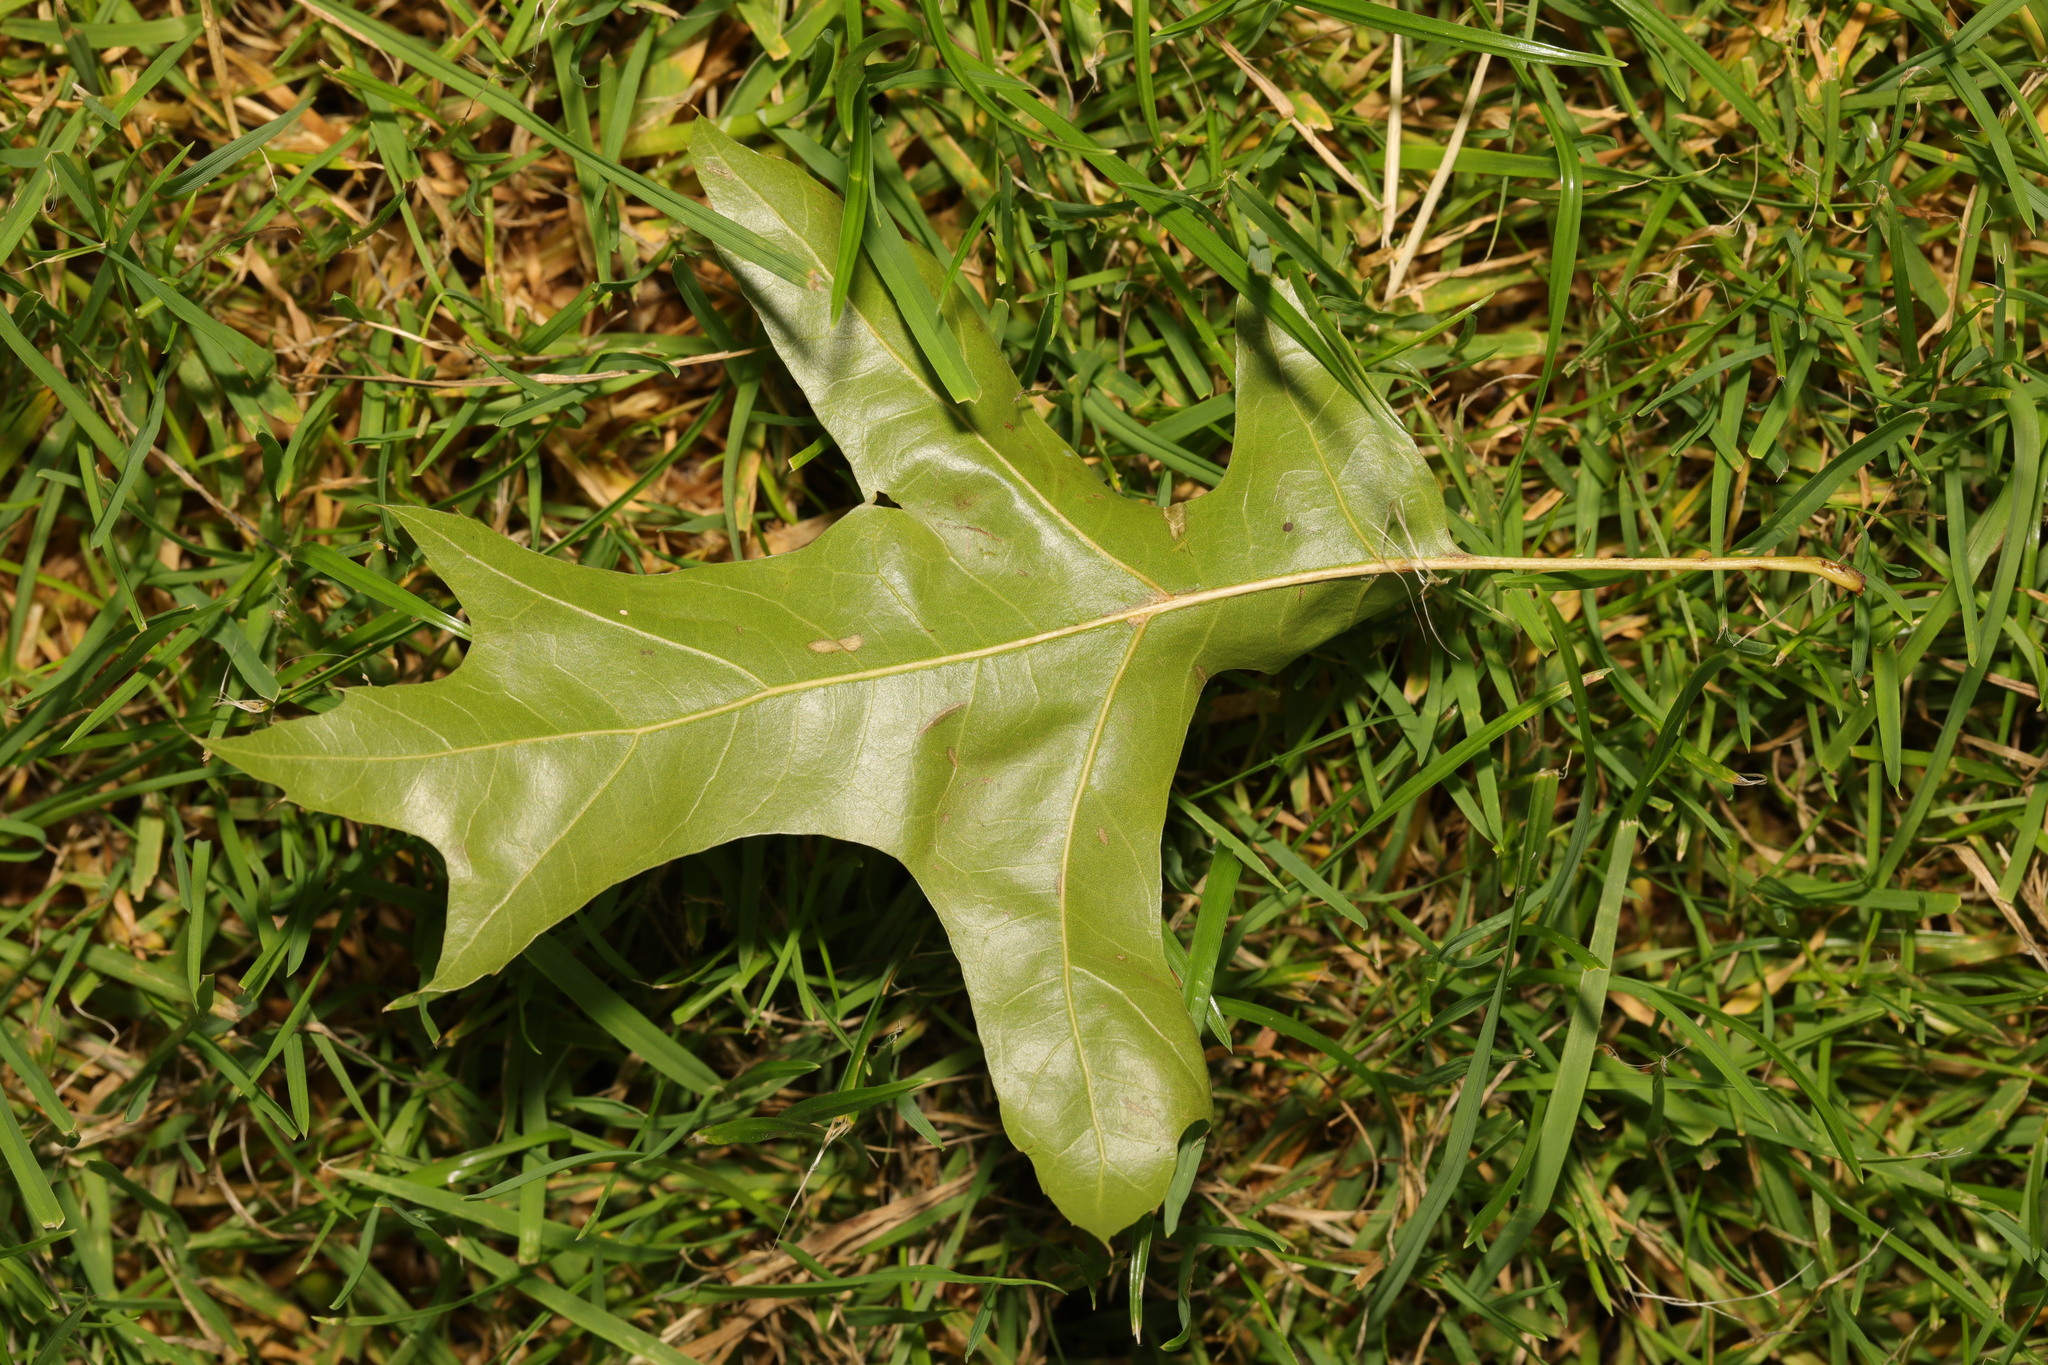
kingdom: Plantae
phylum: Tracheophyta
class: Magnoliopsida
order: Fagales
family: Fagaceae
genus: Quercus
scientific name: Quercus palustris
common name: Pin oak
